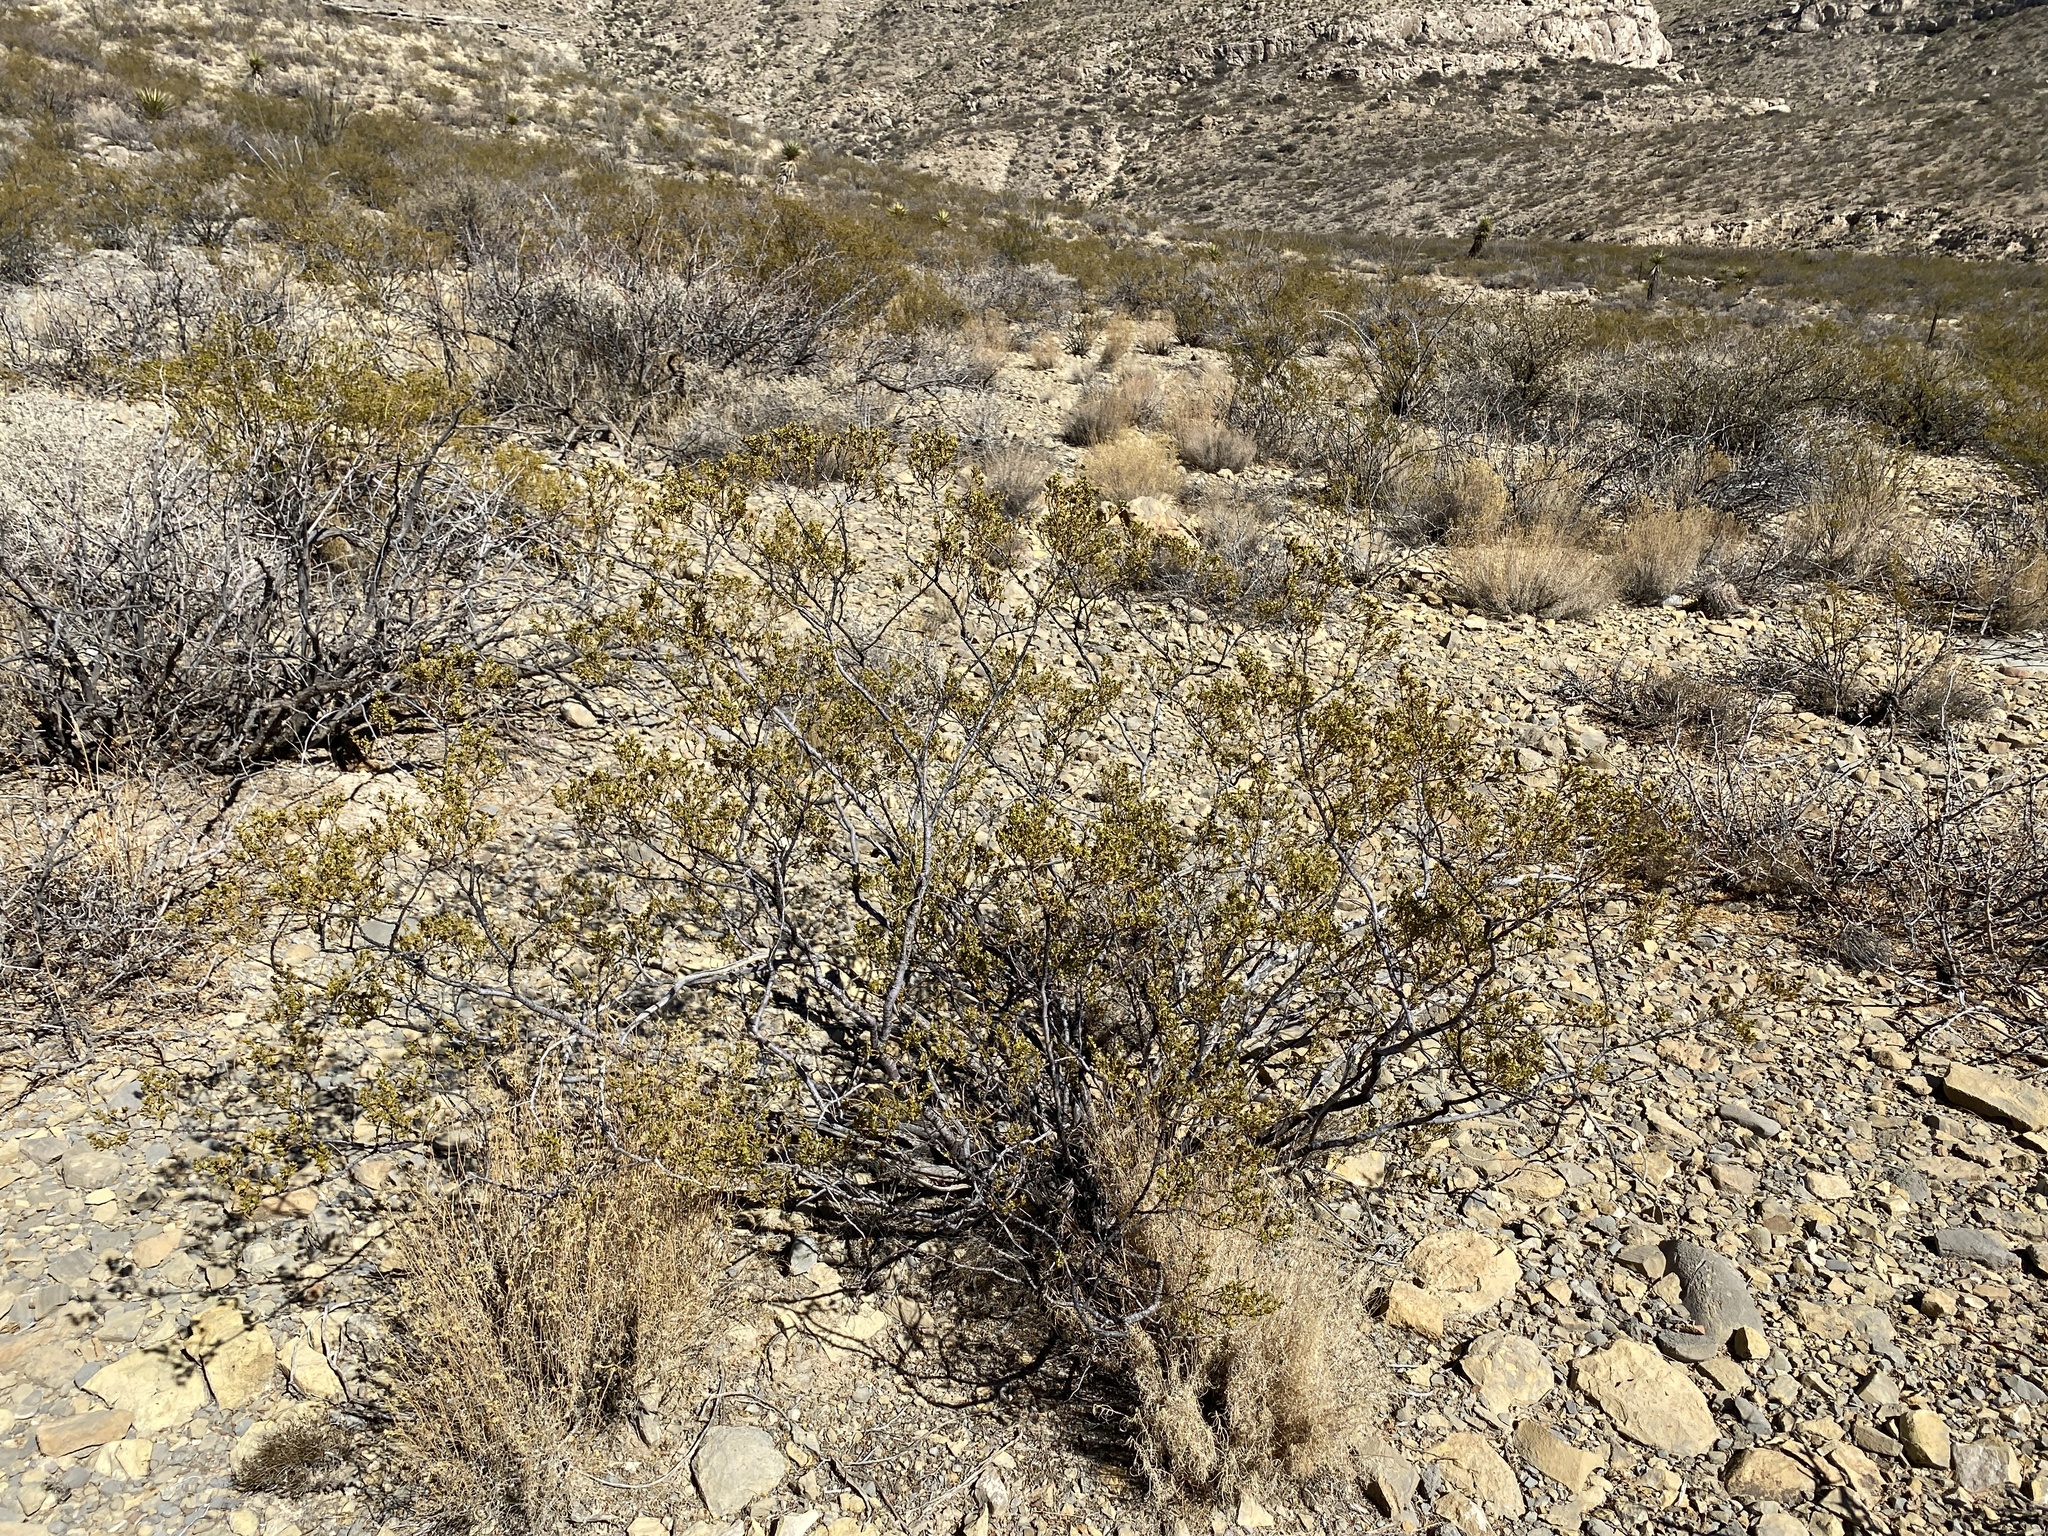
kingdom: Plantae
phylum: Tracheophyta
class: Magnoliopsida
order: Zygophyllales
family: Zygophyllaceae
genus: Larrea
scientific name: Larrea tridentata
